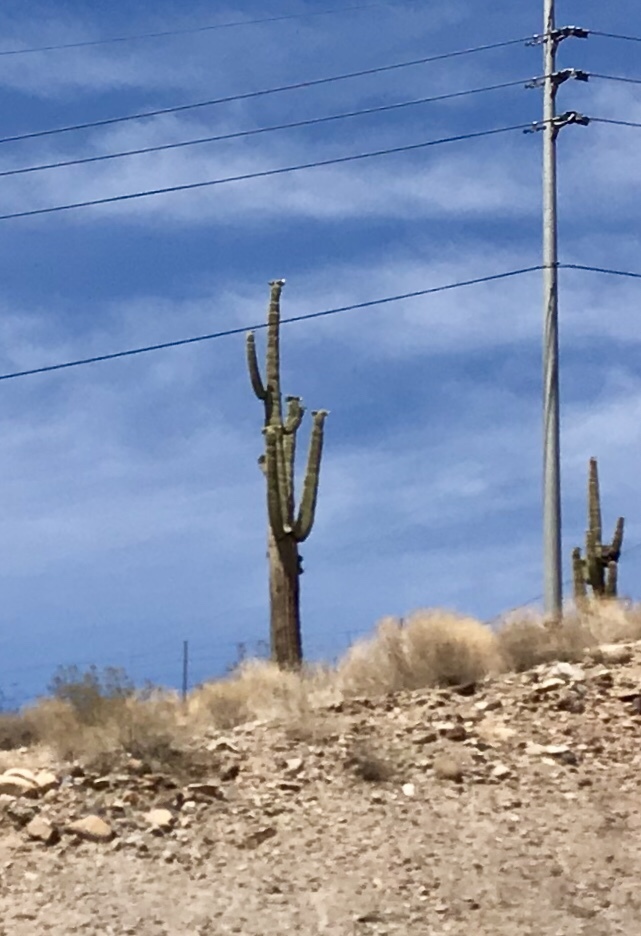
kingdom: Plantae
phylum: Tracheophyta
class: Magnoliopsida
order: Caryophyllales
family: Cactaceae
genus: Carnegiea
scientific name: Carnegiea gigantea
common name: Saguaro
